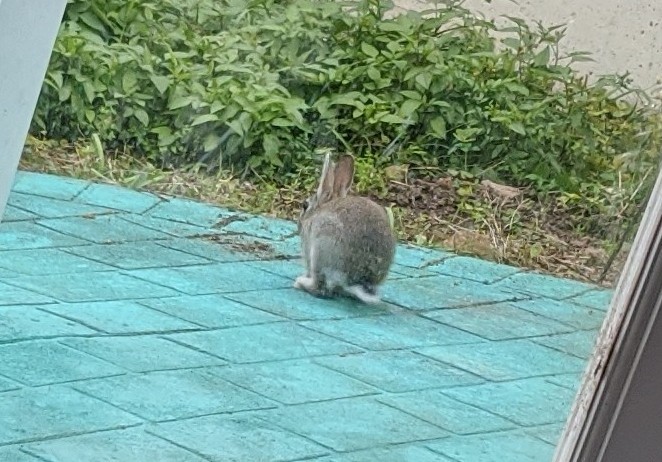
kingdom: Animalia
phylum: Chordata
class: Mammalia
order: Lagomorpha
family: Leporidae
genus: Oryctolagus
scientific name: Oryctolagus cuniculus
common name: European rabbit
